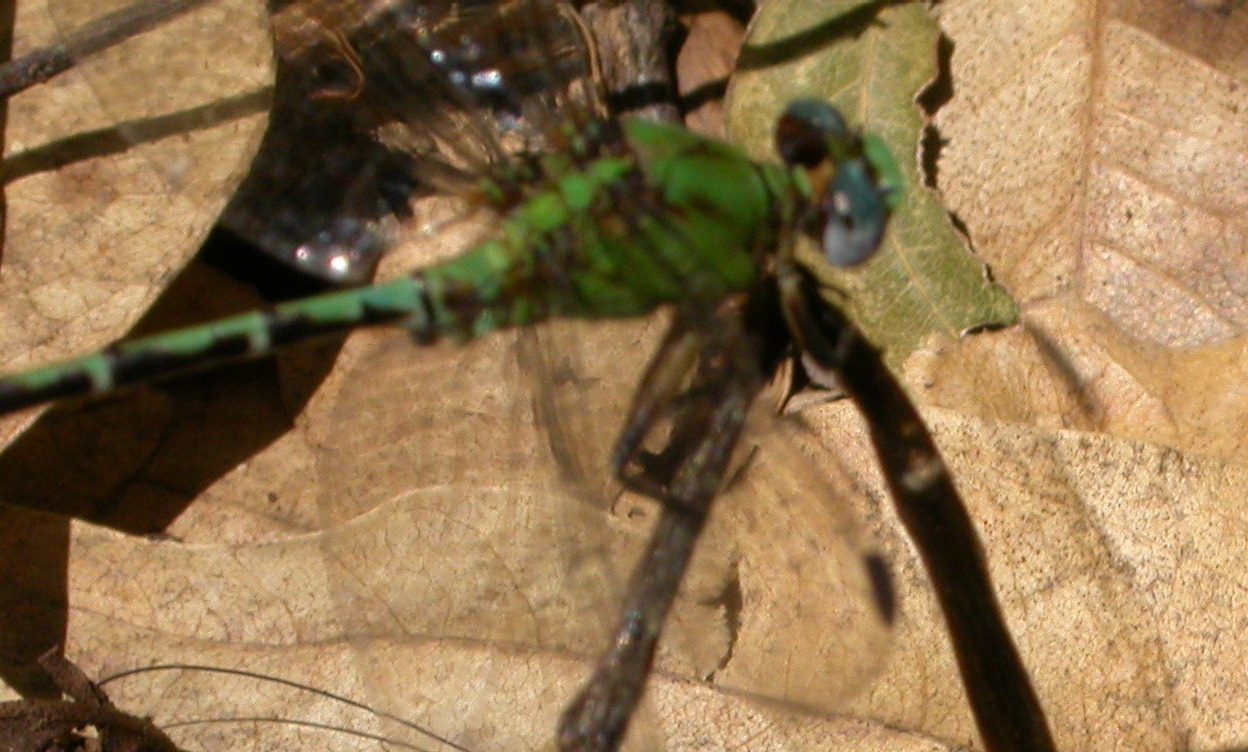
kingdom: Animalia
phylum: Arthropoda
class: Insecta
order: Odonata
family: Gomphidae
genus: Erpetogomphus
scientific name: Erpetogomphus elaps
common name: Straight-tipped ringtail
